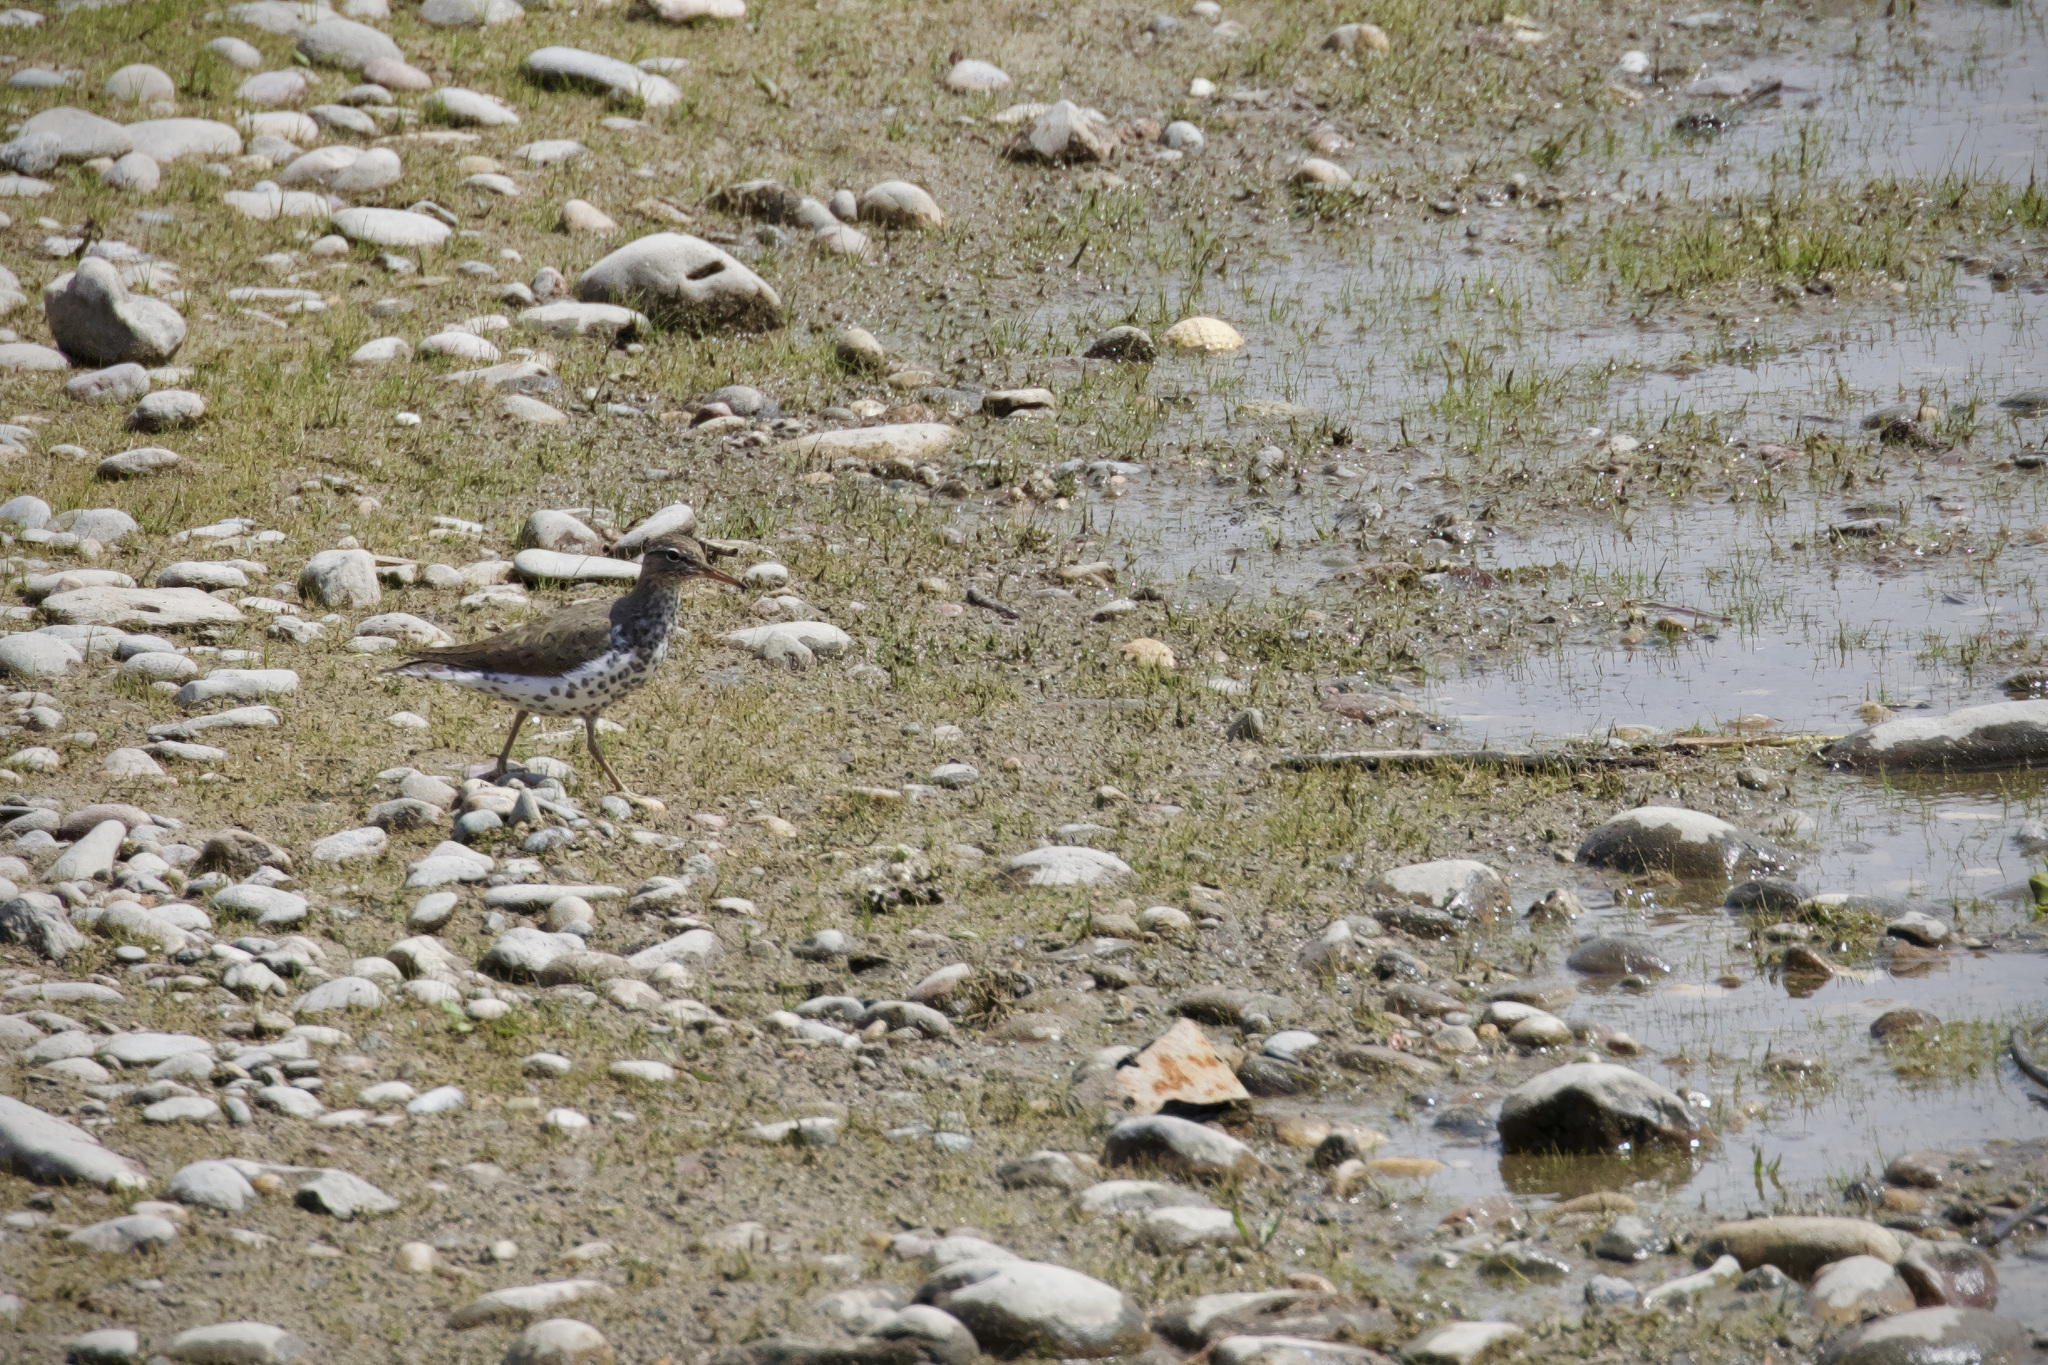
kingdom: Animalia
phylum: Chordata
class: Aves
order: Charadriiformes
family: Scolopacidae
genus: Actitis
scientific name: Actitis macularius
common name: Spotted sandpiper
